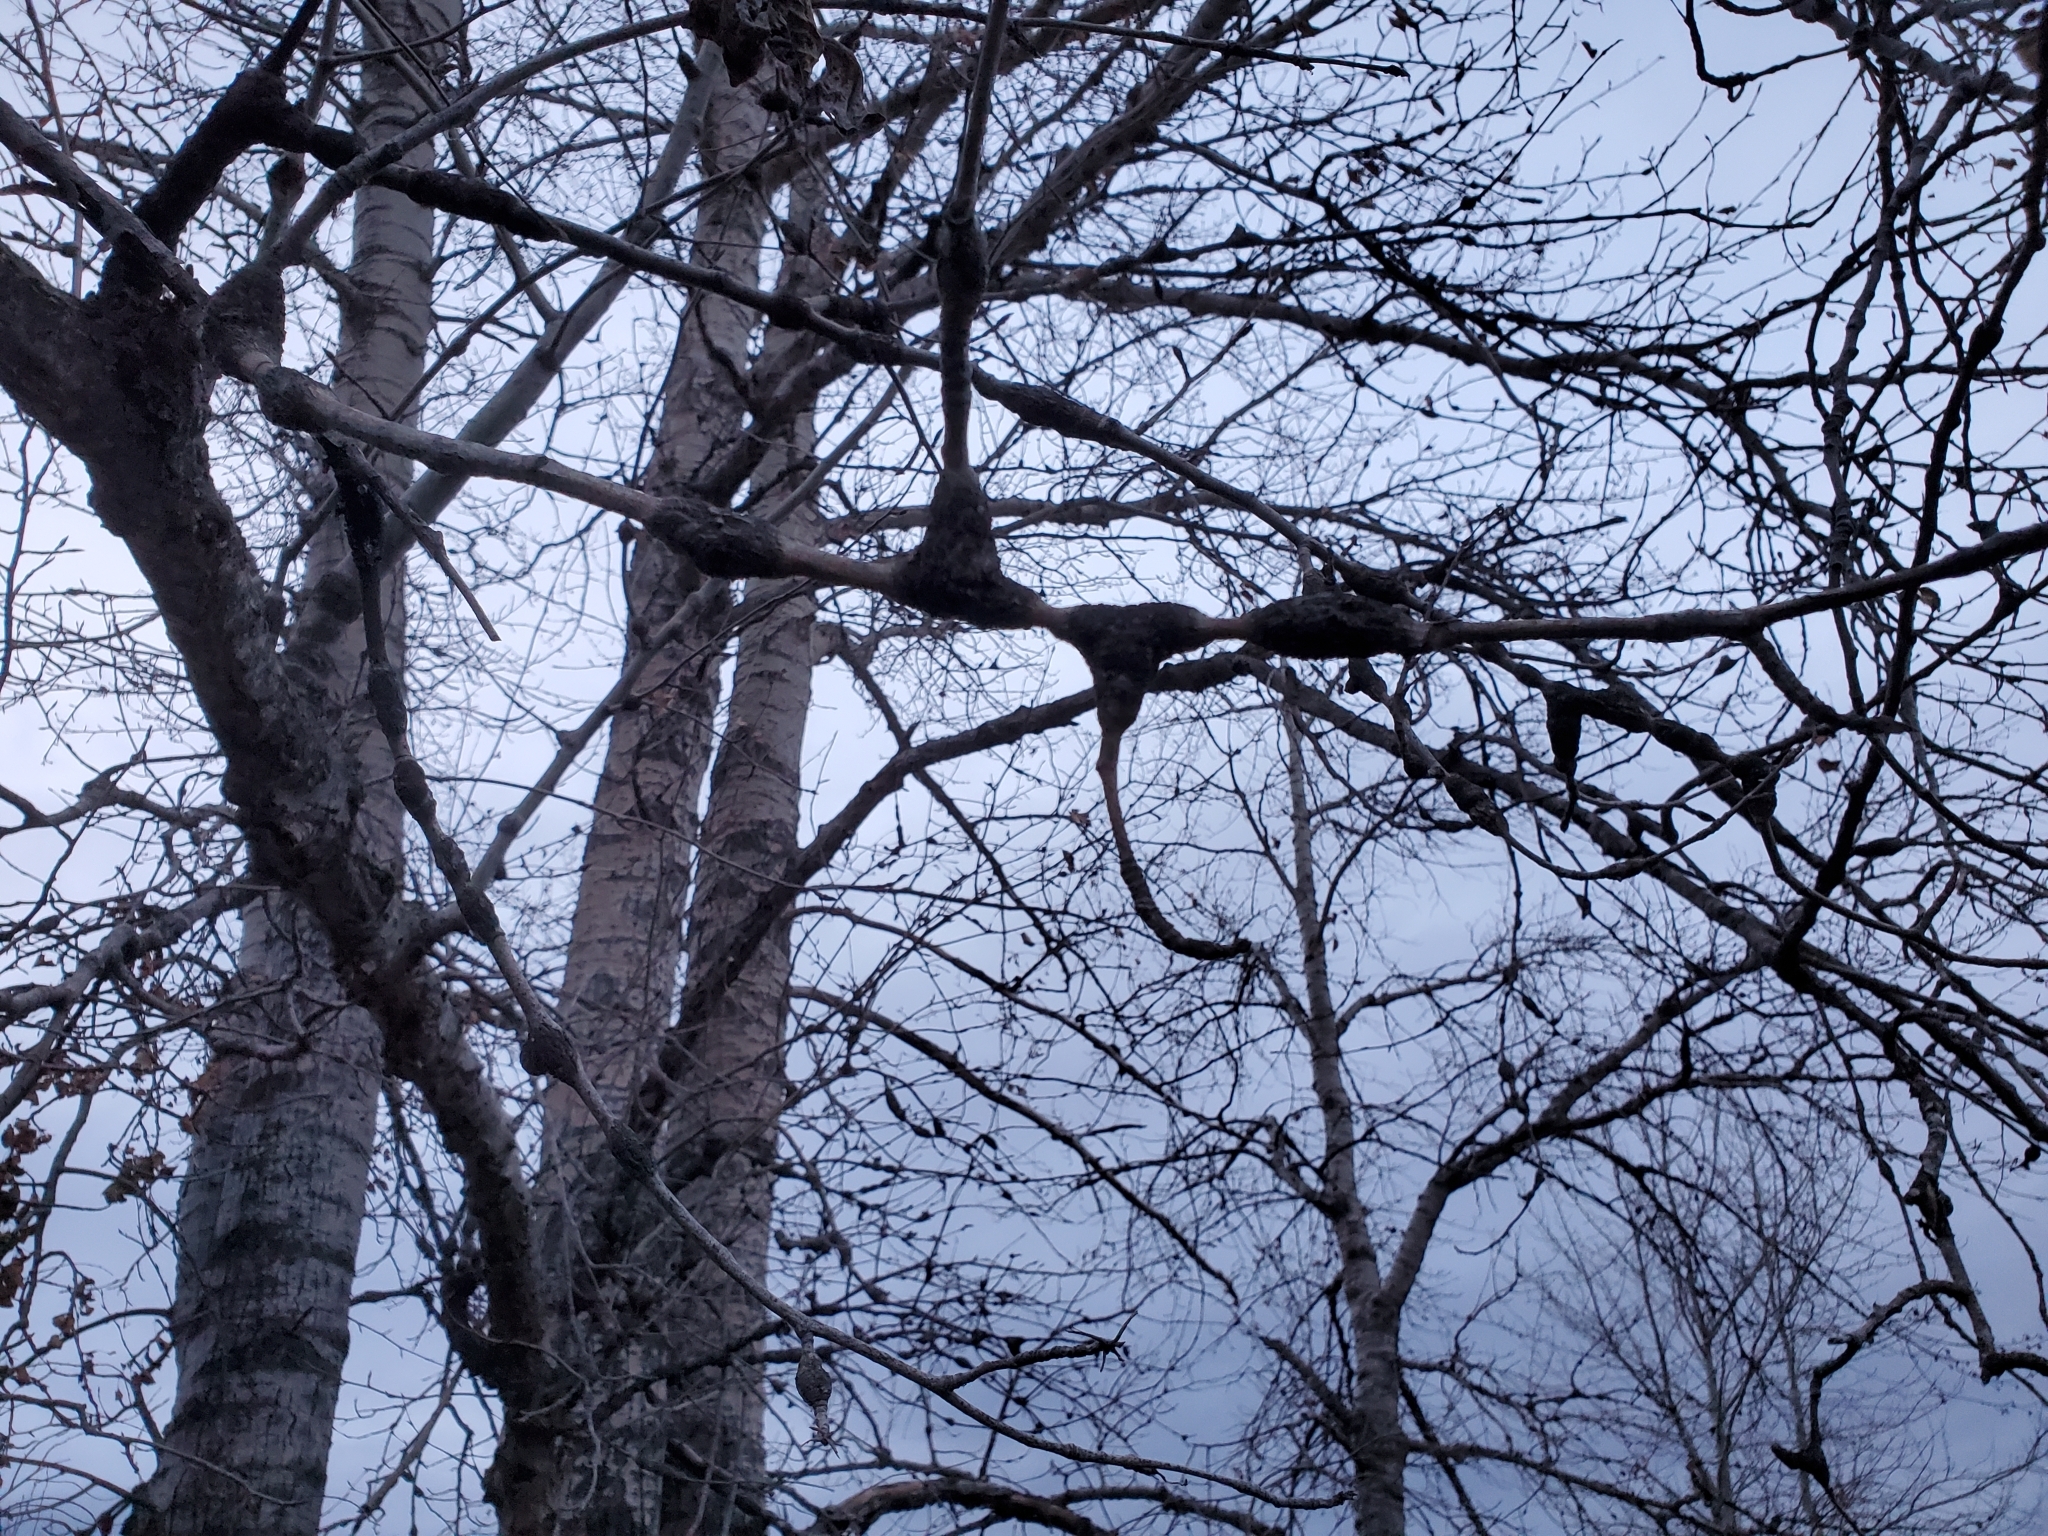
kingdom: Fungi
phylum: Ascomycota
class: Dothideomycetes
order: Botryosphaeriales
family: Botryosphaeriaceae
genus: Diplodia
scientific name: Diplodia tumefaciens
